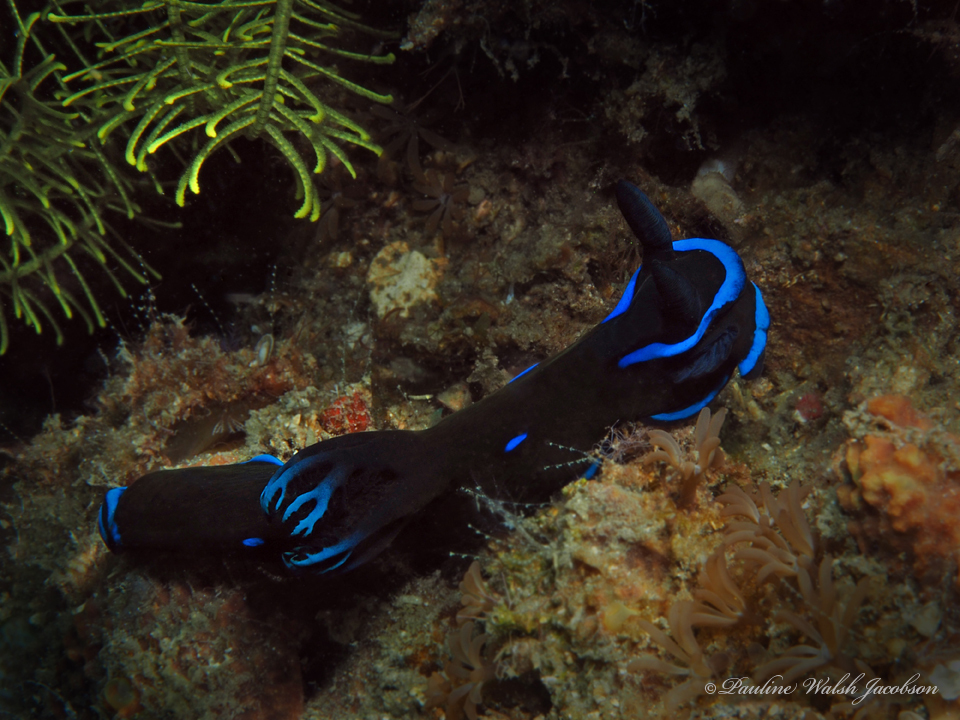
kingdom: Animalia
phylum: Mollusca
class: Gastropoda
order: Nudibranchia
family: Polyceridae
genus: Tambja
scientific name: Tambja morosa
